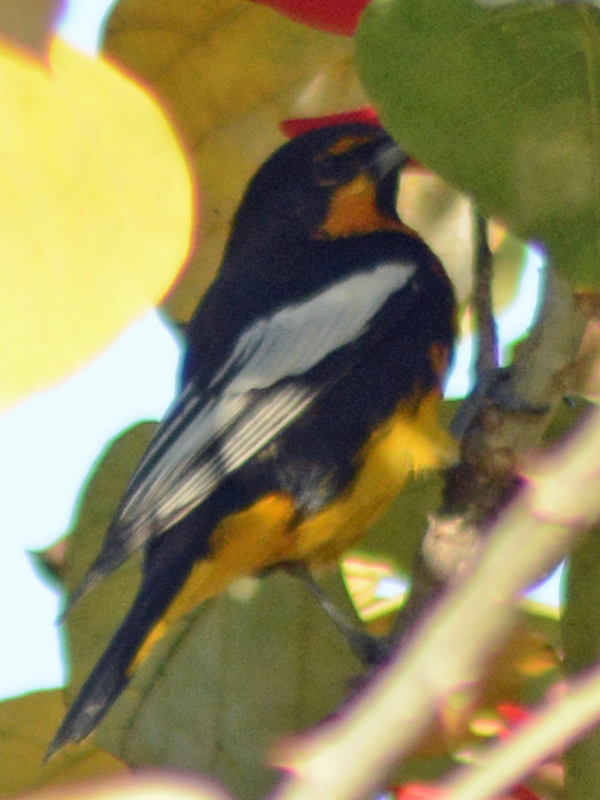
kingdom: Animalia
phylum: Chordata
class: Aves
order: Passeriformes
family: Icteridae
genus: Icterus
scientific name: Icterus abeillei
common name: Black-backed oriole
